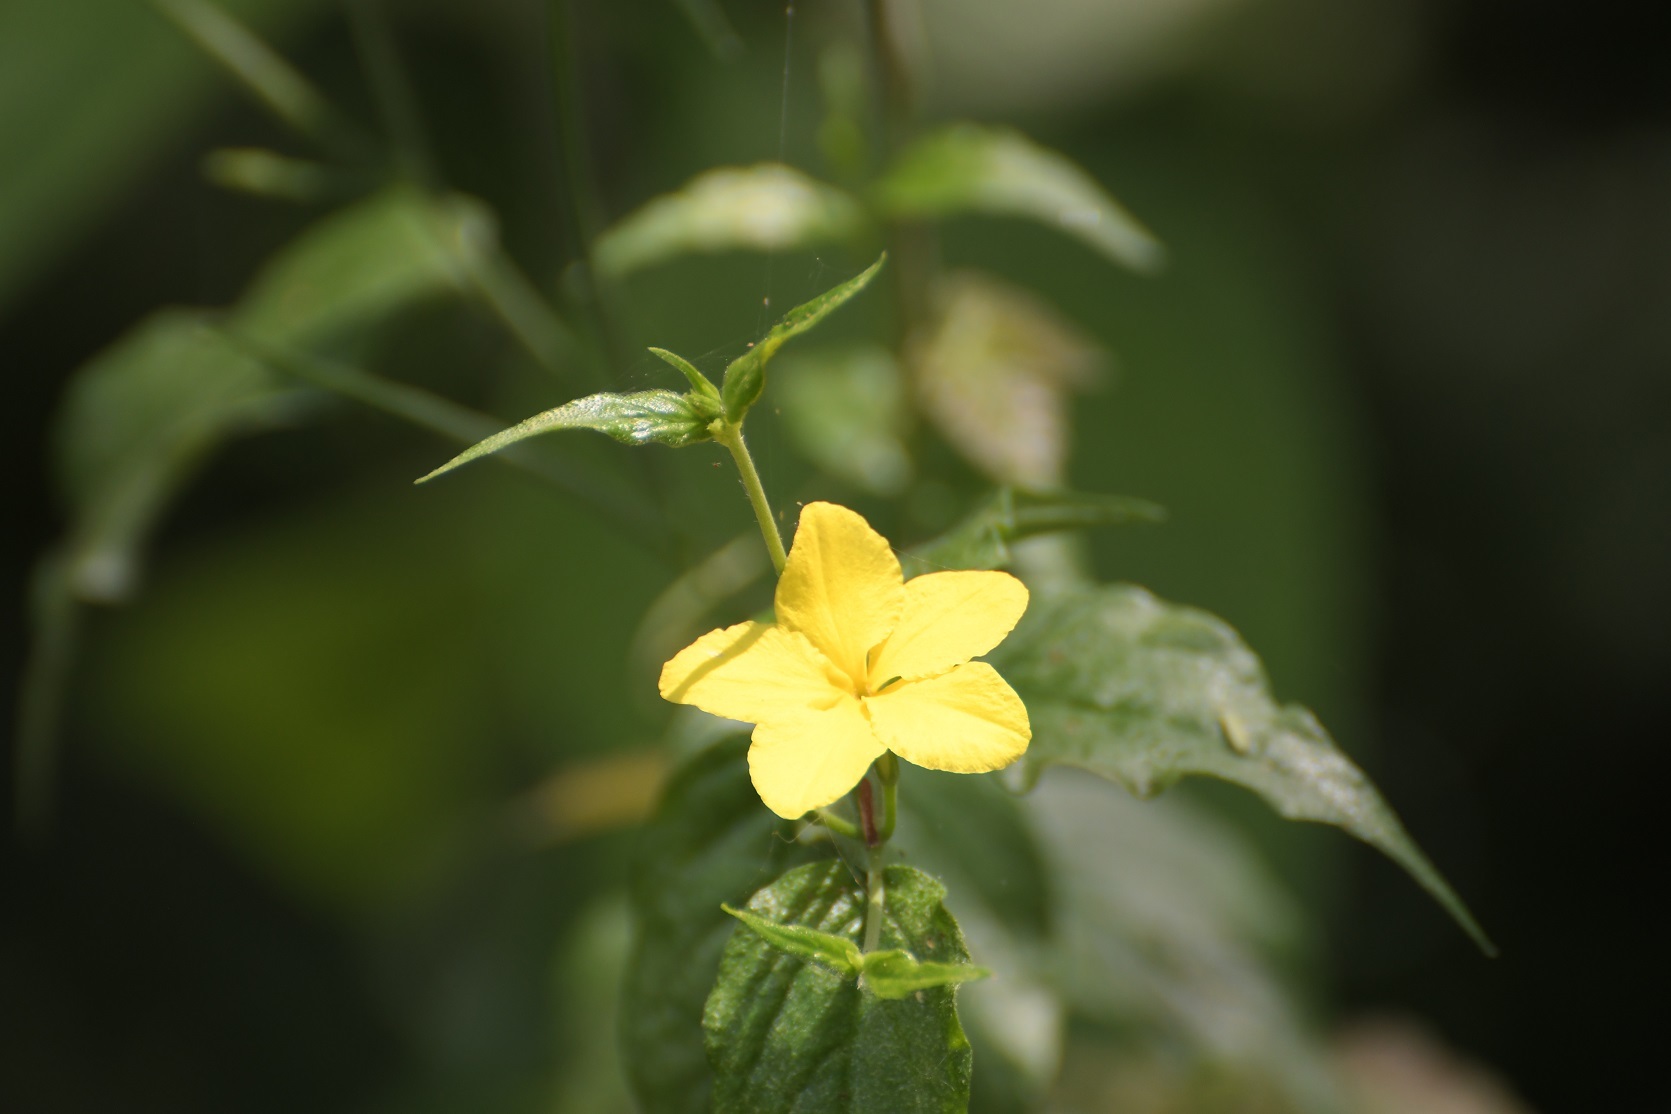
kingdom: Plantae
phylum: Tracheophyta
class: Magnoliopsida
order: Gentianales
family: Apocynaceae
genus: Haplophyton
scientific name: Haplophyton cimicidum
